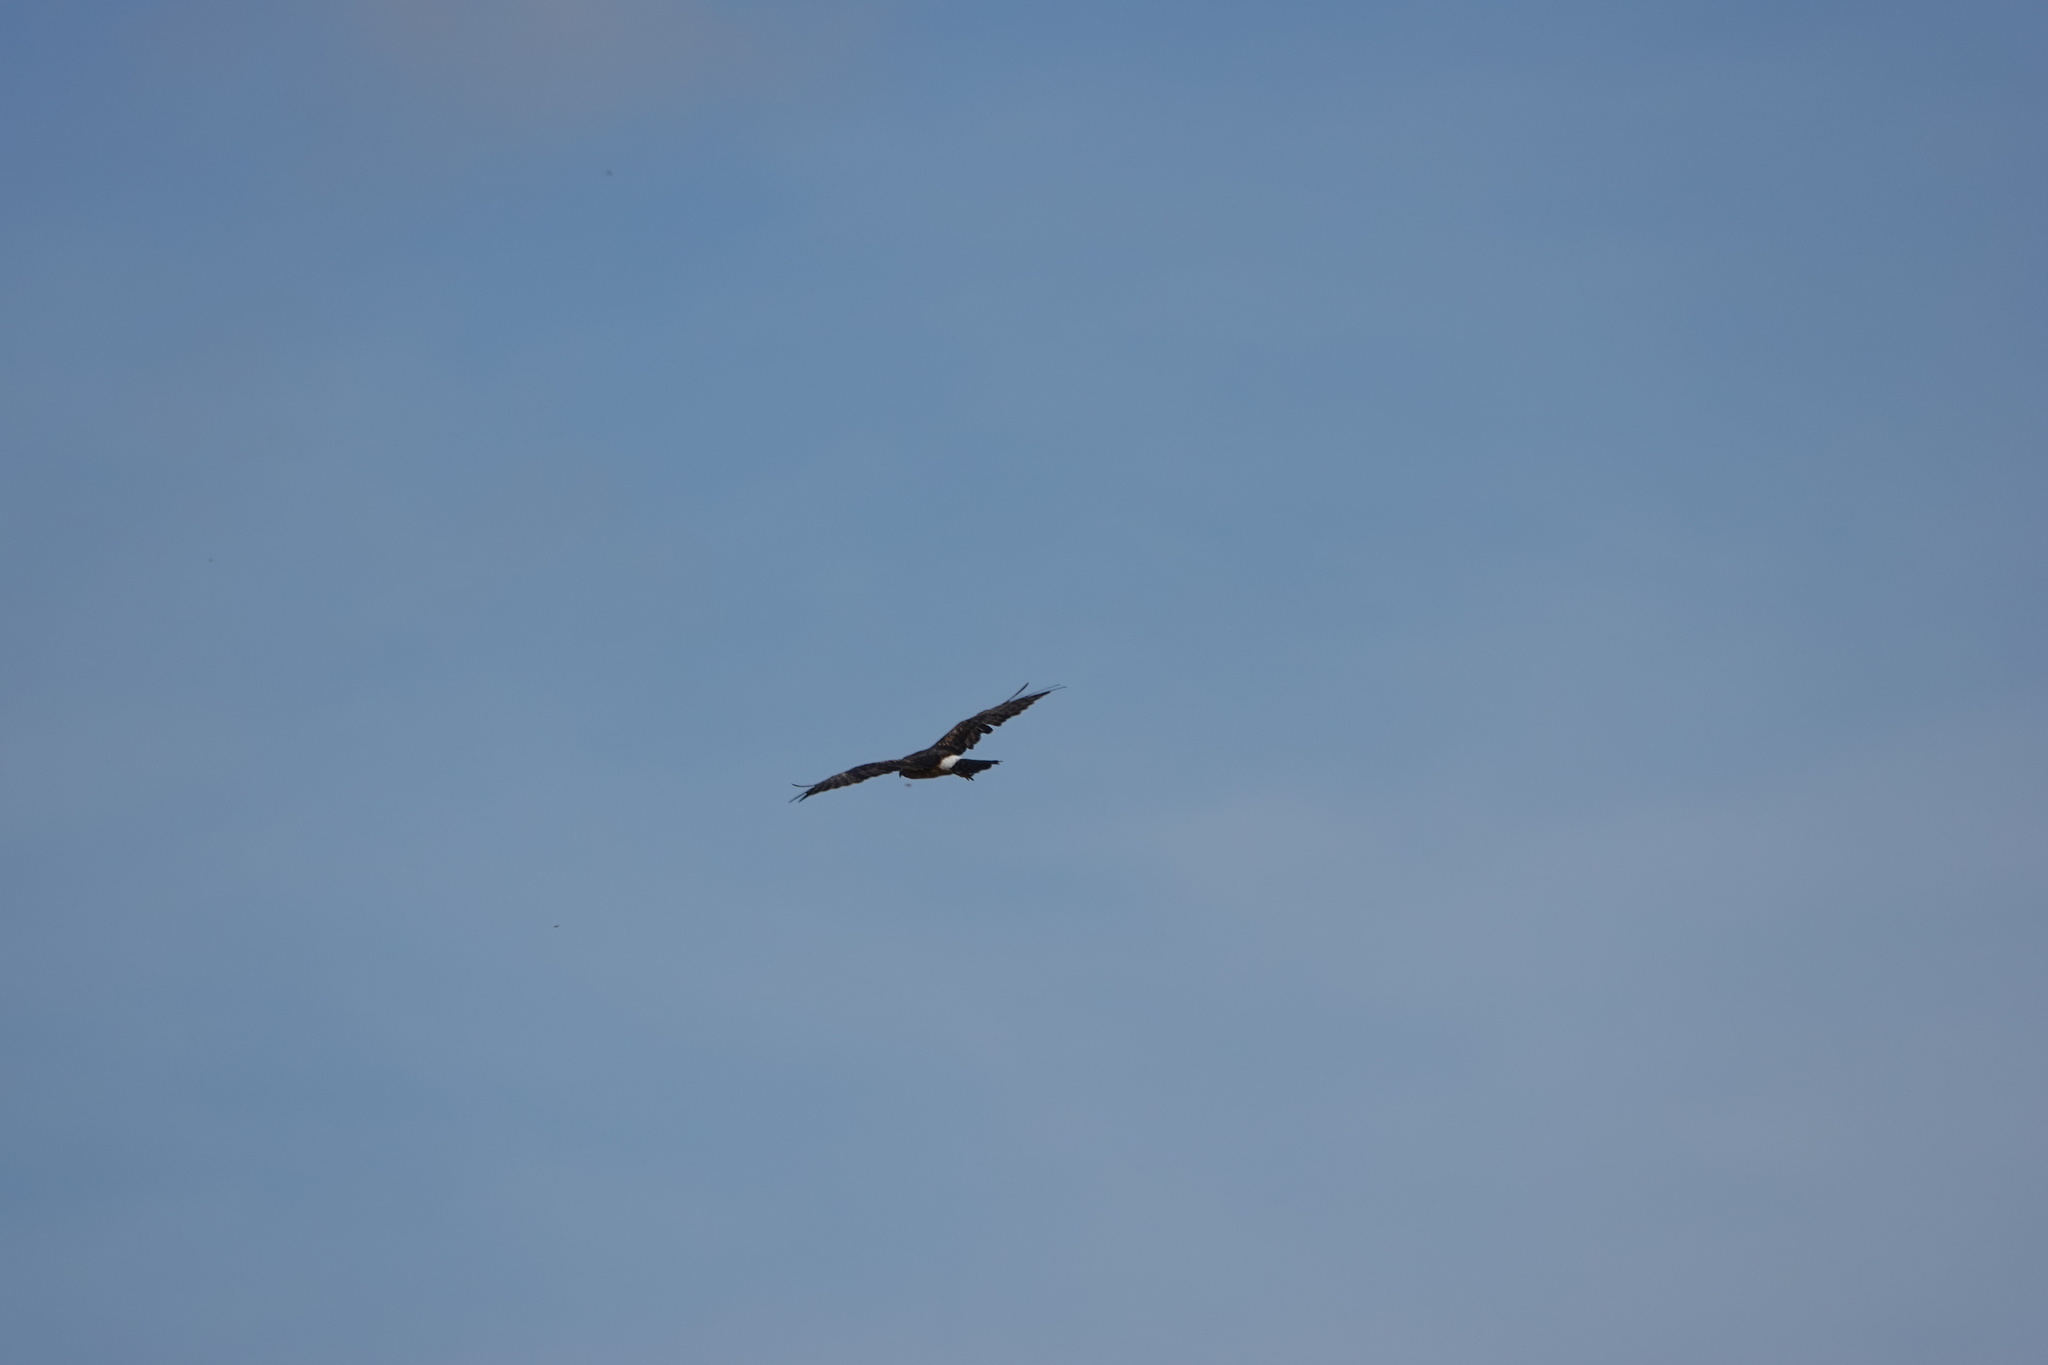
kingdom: Animalia
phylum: Chordata
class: Aves
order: Accipitriformes
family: Accipitridae
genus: Circus
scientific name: Circus cyaneus
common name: Hen harrier
